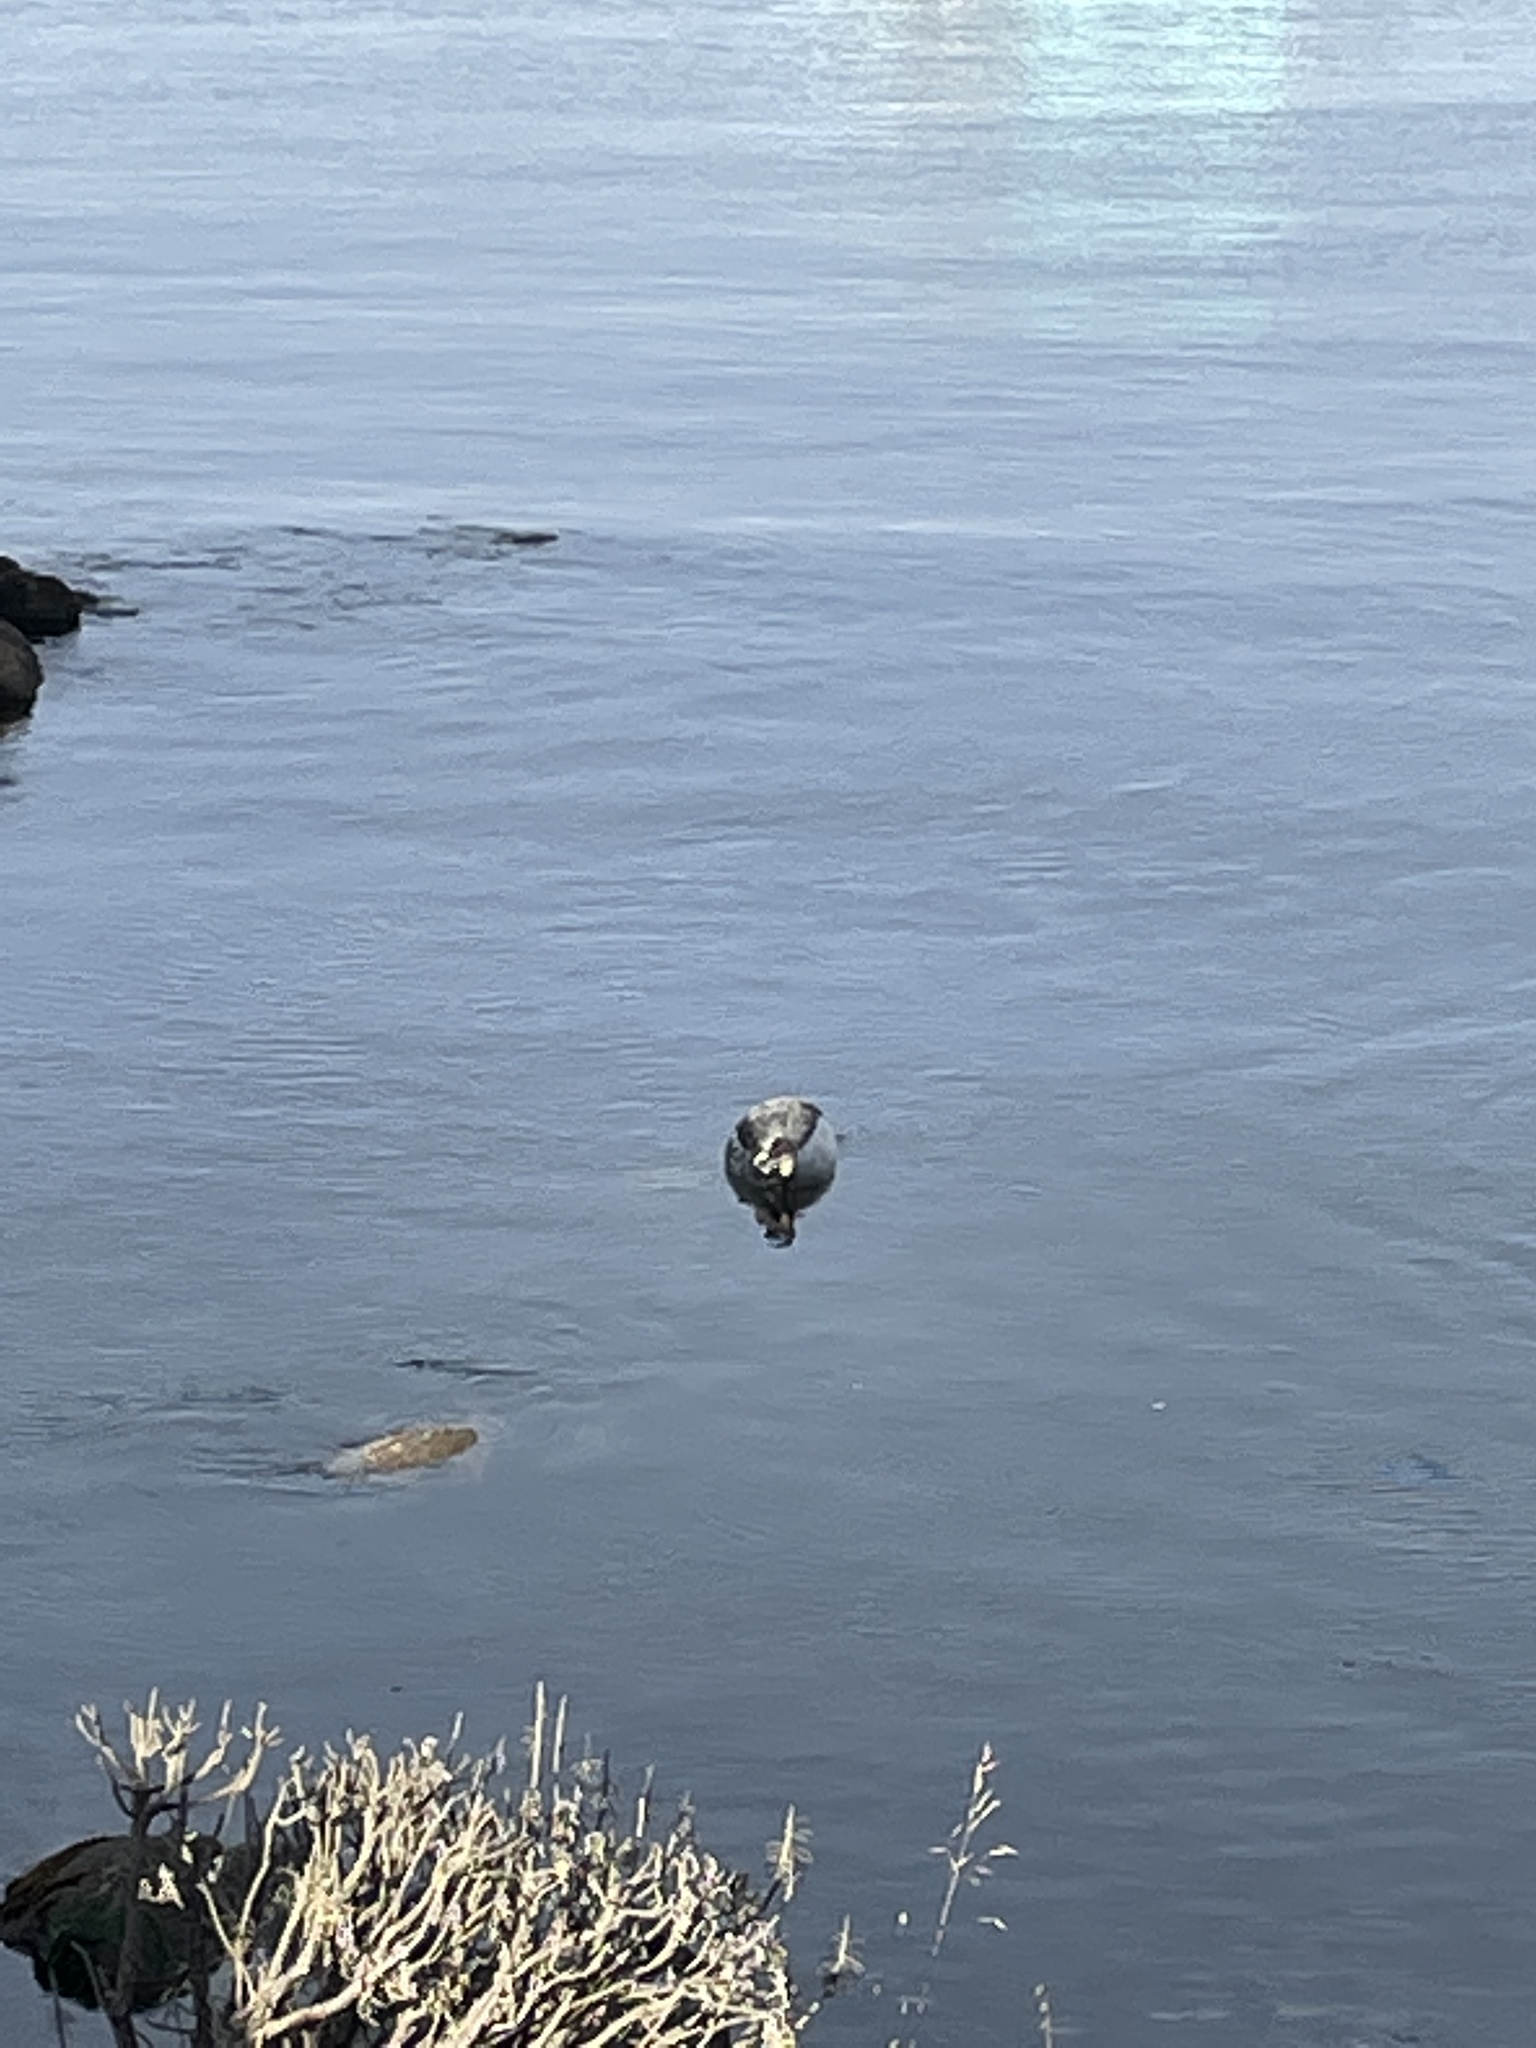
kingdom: Animalia
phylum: Chordata
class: Mammalia
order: Carnivora
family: Phocidae
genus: Phoca
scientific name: Phoca vitulina
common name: Harbor seal
